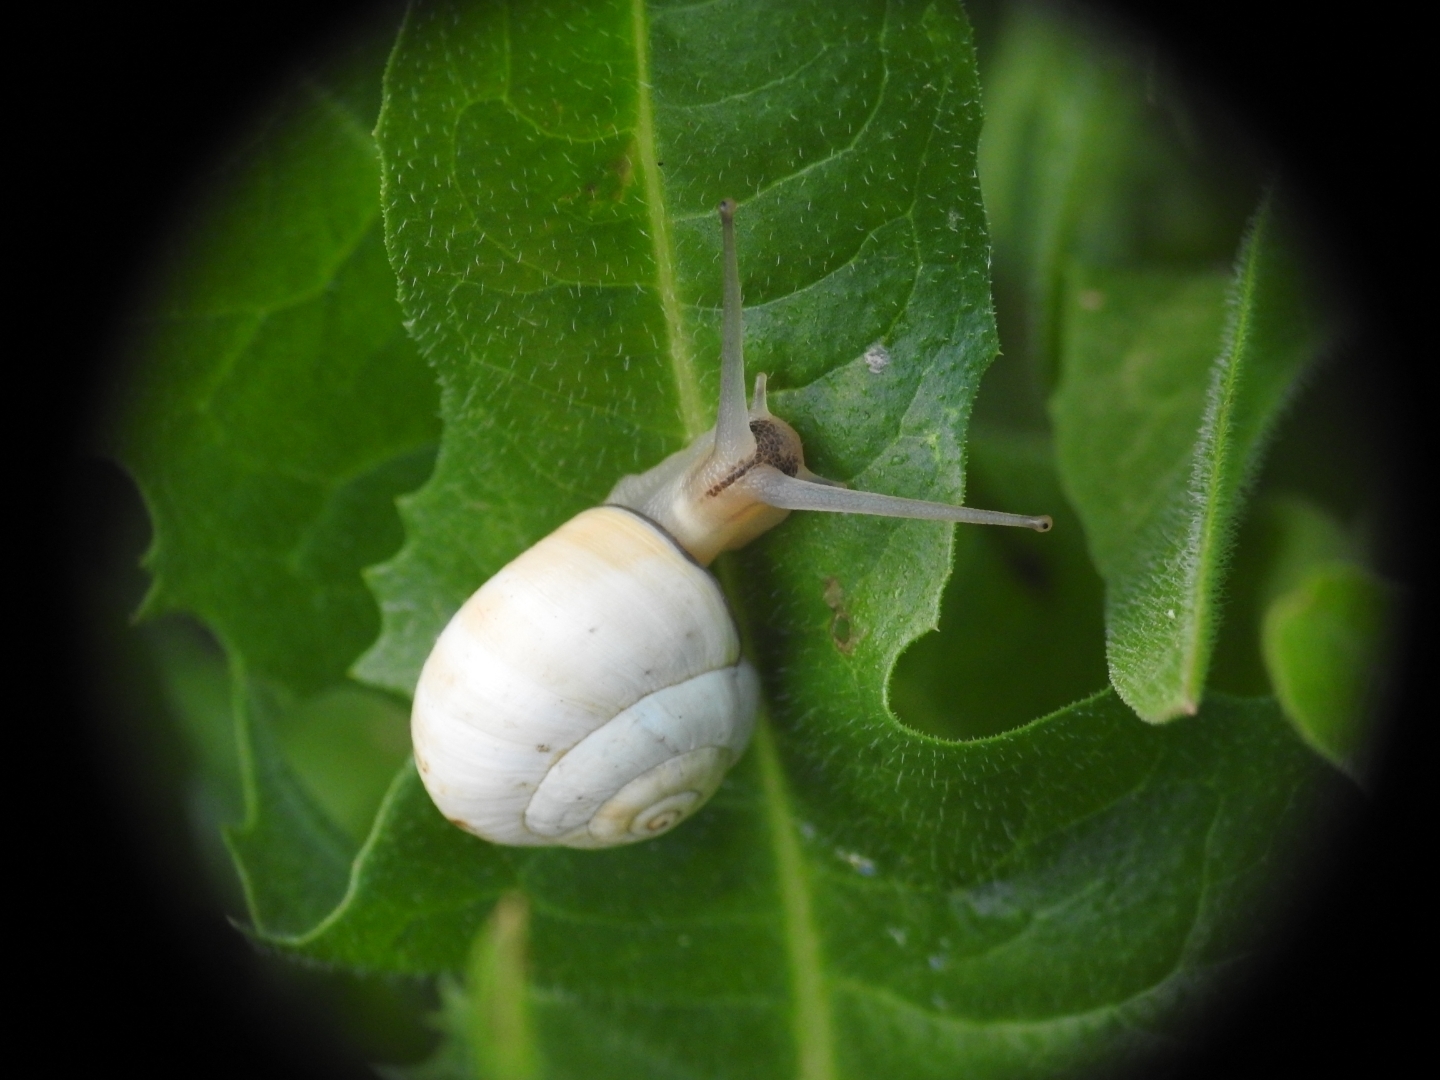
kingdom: Animalia
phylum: Mollusca
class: Gastropoda
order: Stylommatophora
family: Helicidae
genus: Theba
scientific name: Theba pisana
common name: White snail
